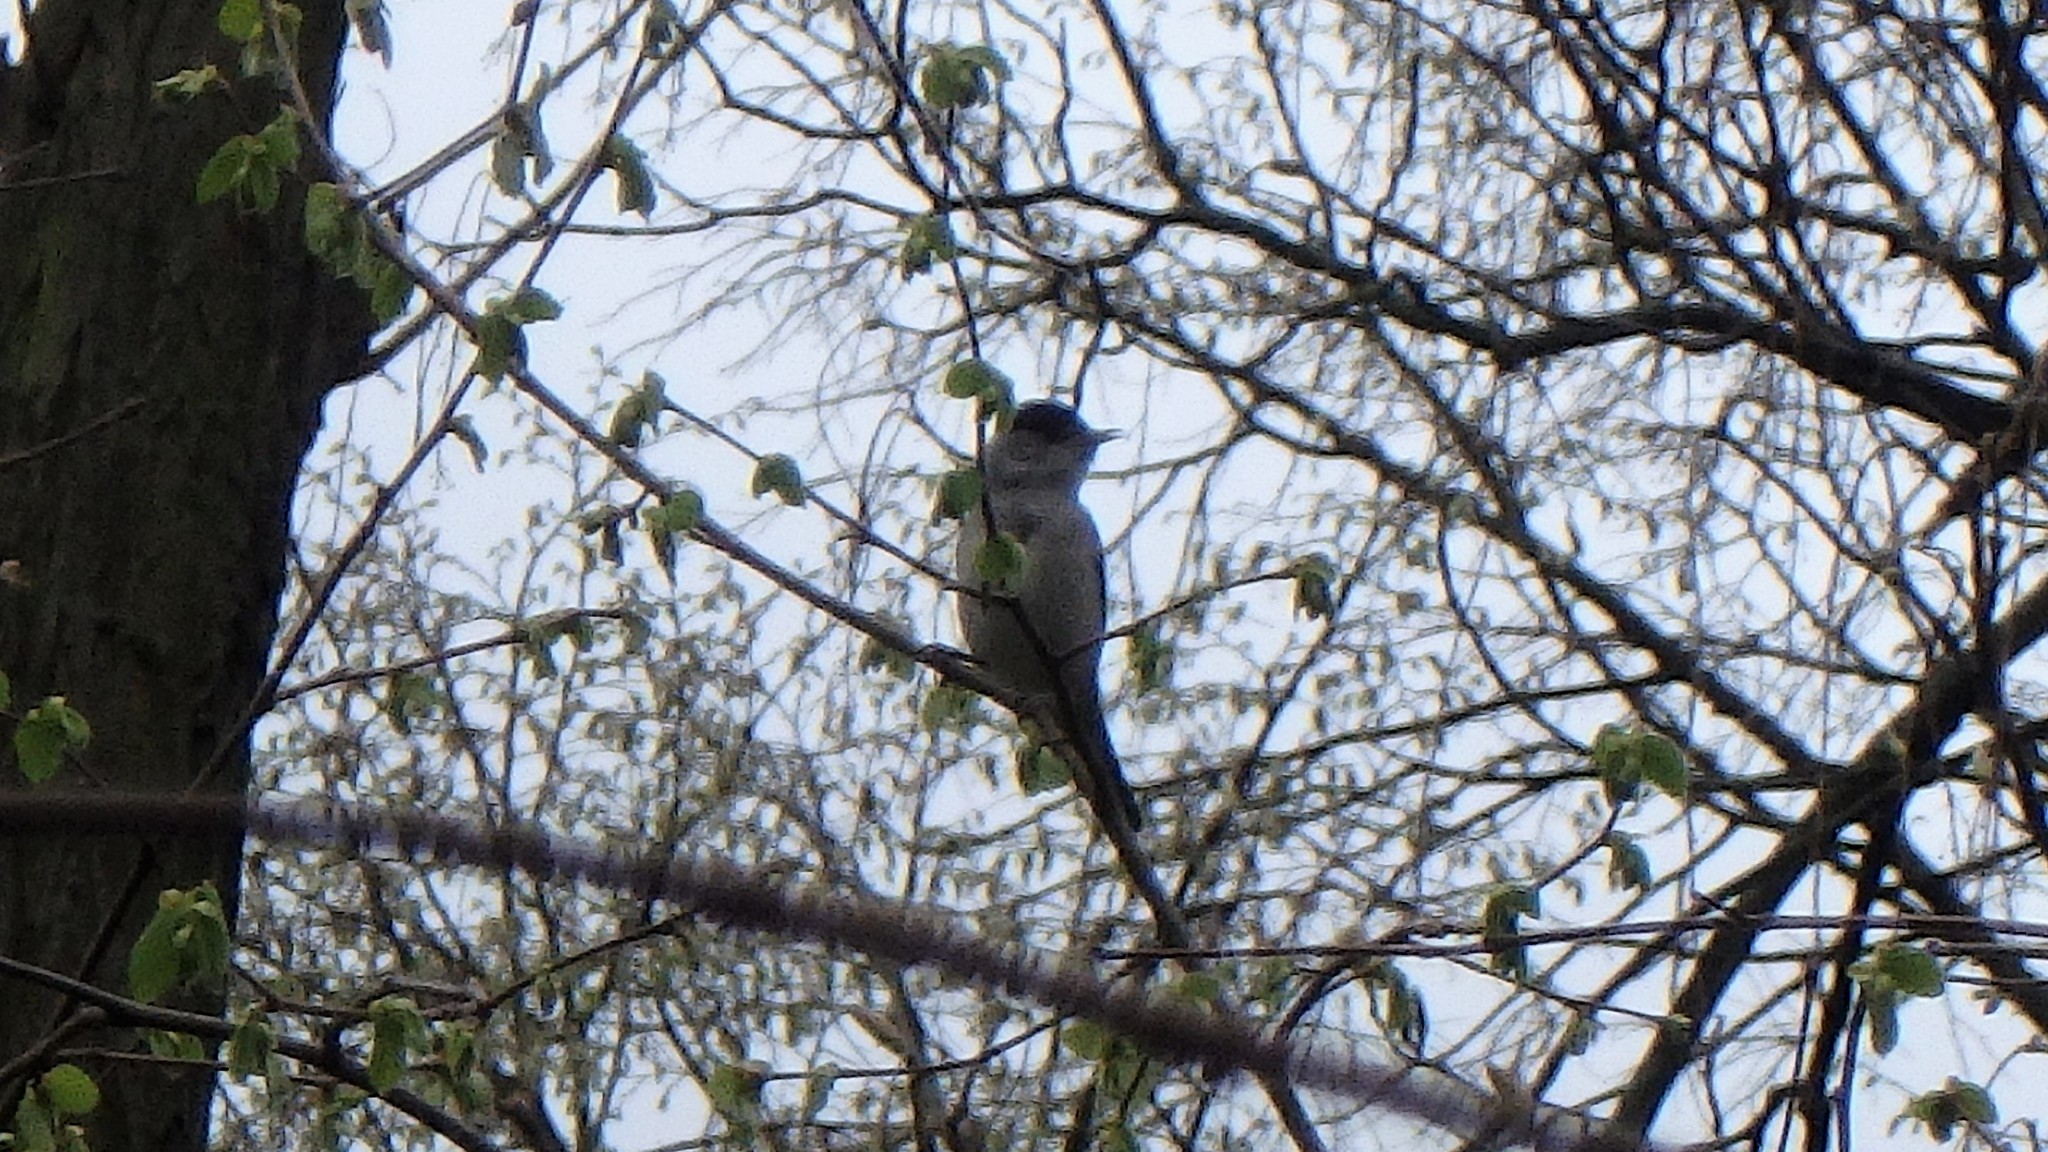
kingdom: Animalia
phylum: Chordata
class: Aves
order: Passeriformes
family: Sylviidae
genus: Sylvia
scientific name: Sylvia atricapilla
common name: Eurasian blackcap
